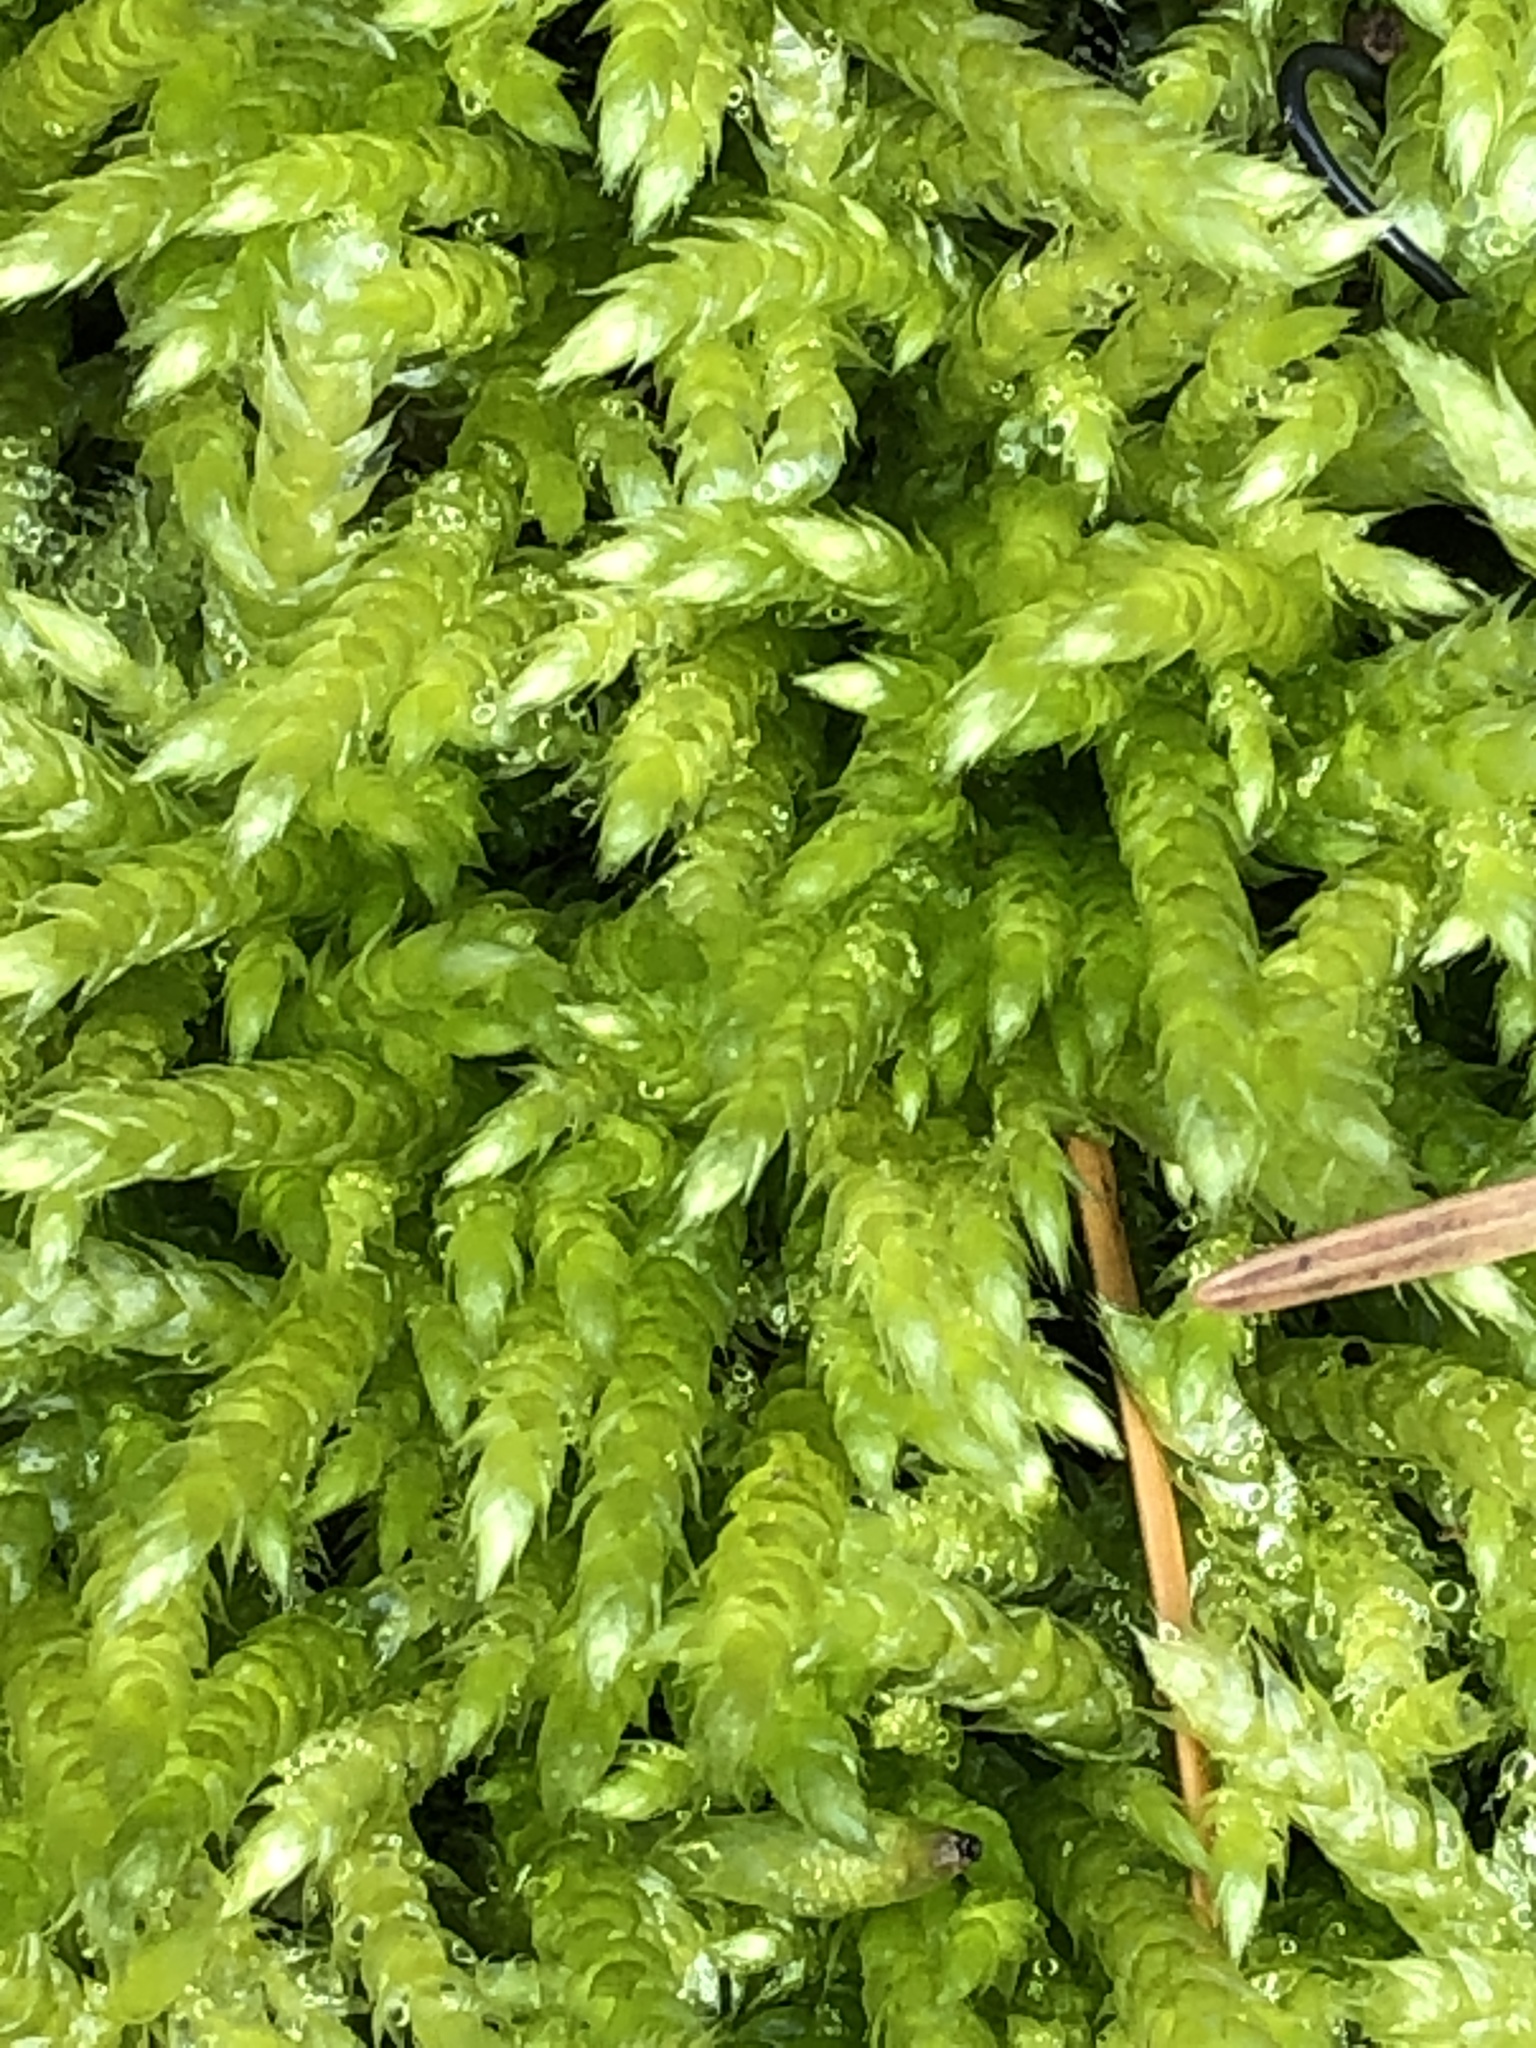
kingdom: Plantae
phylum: Bryophyta
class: Bryopsida
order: Hypnales
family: Hypnaceae
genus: Hypnum
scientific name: Hypnum cupressiforme
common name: Cypress-leaved plait-moss
